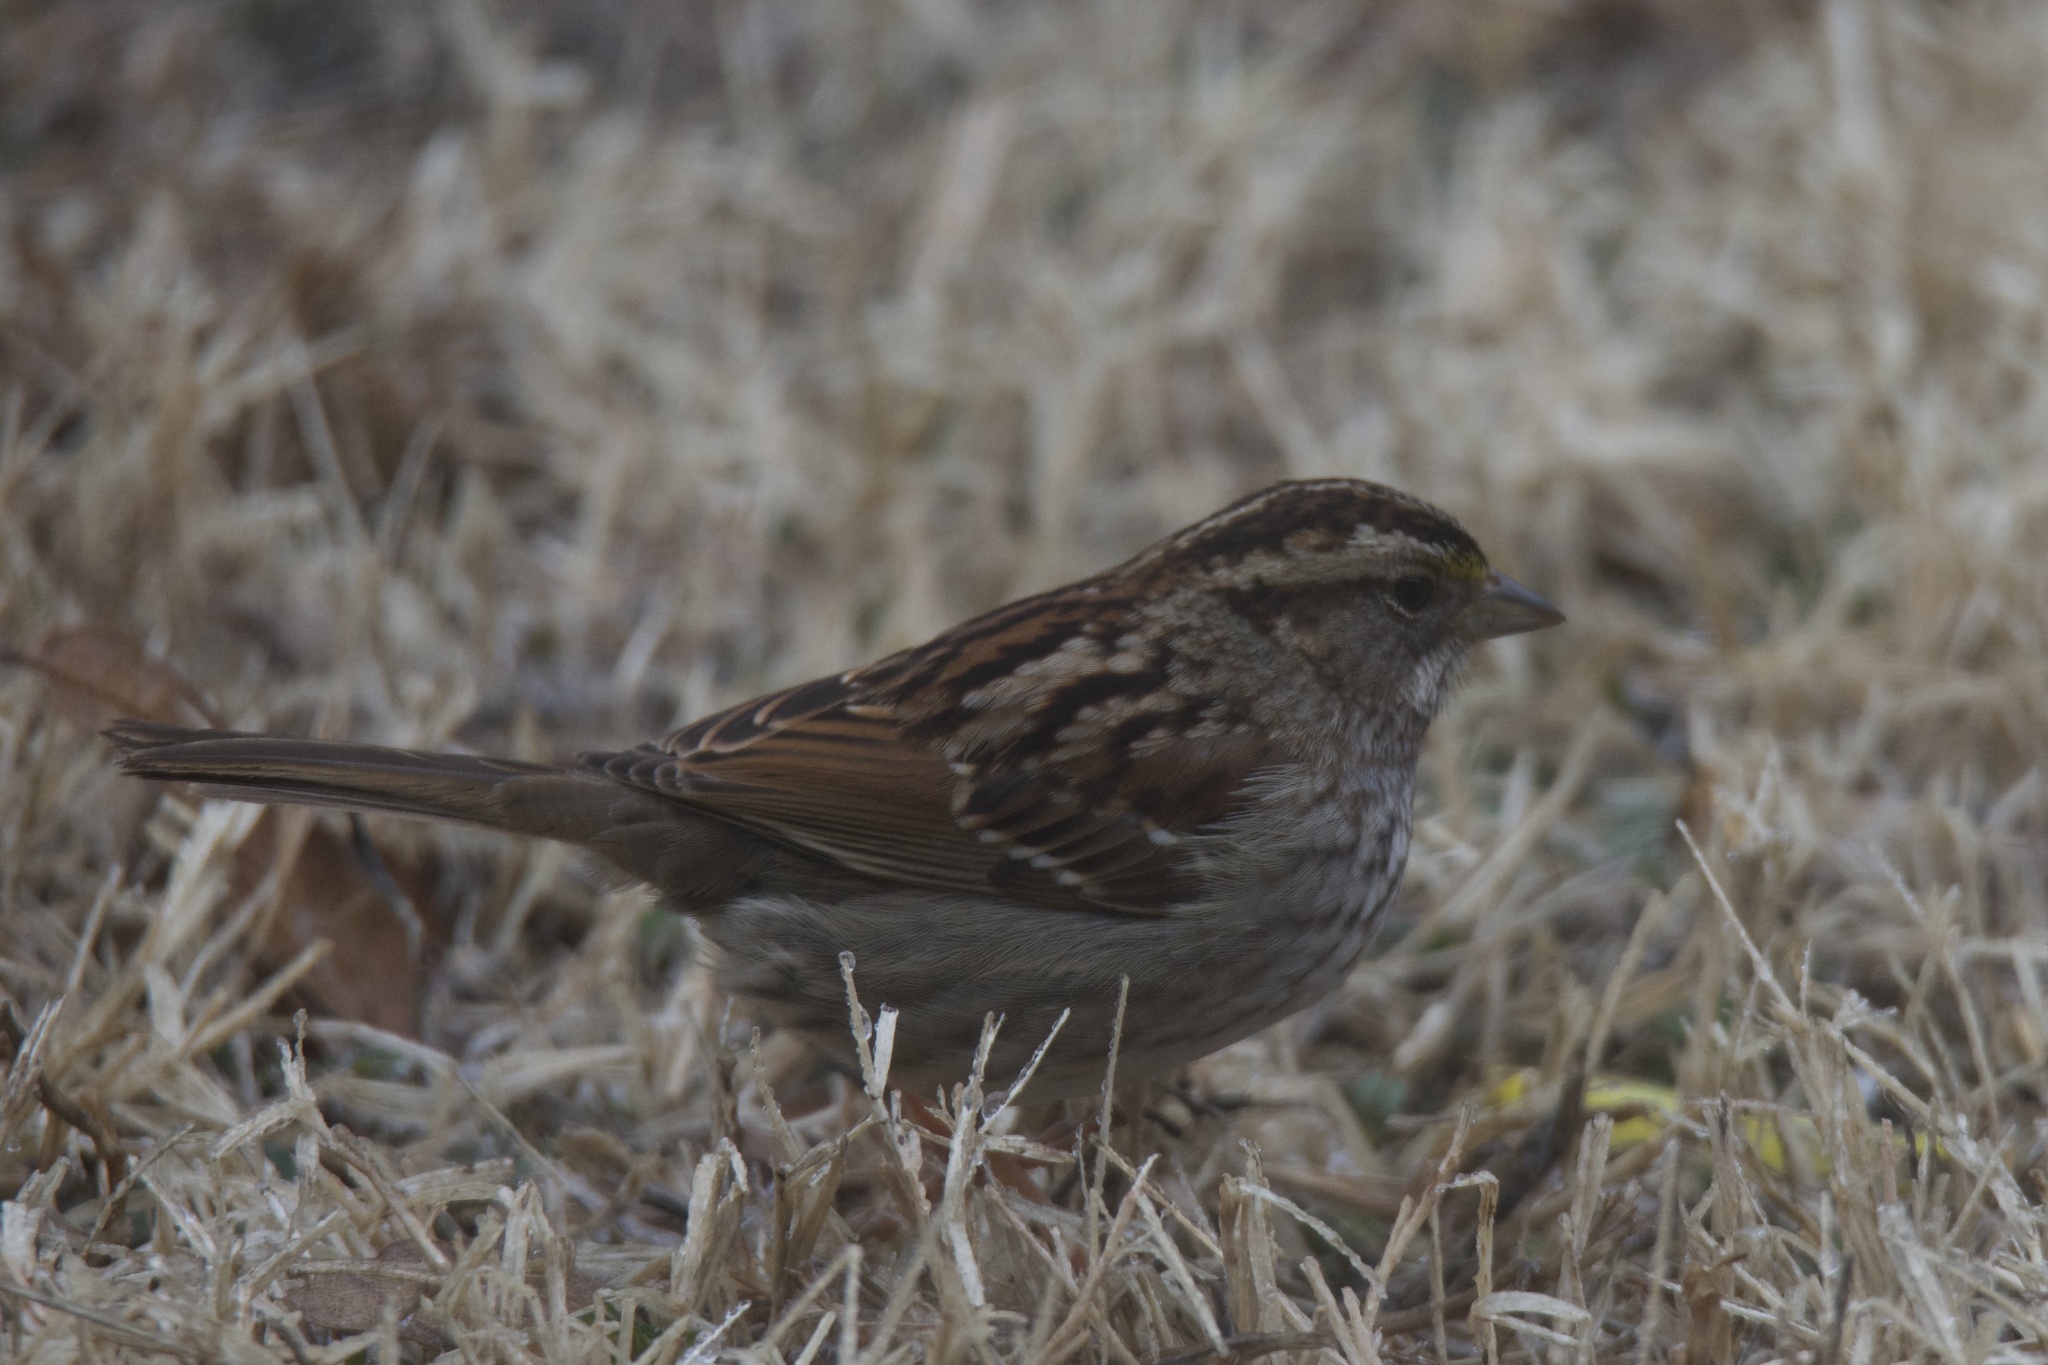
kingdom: Animalia
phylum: Chordata
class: Aves
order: Passeriformes
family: Passerellidae
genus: Zonotrichia
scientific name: Zonotrichia albicollis
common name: White-throated sparrow
